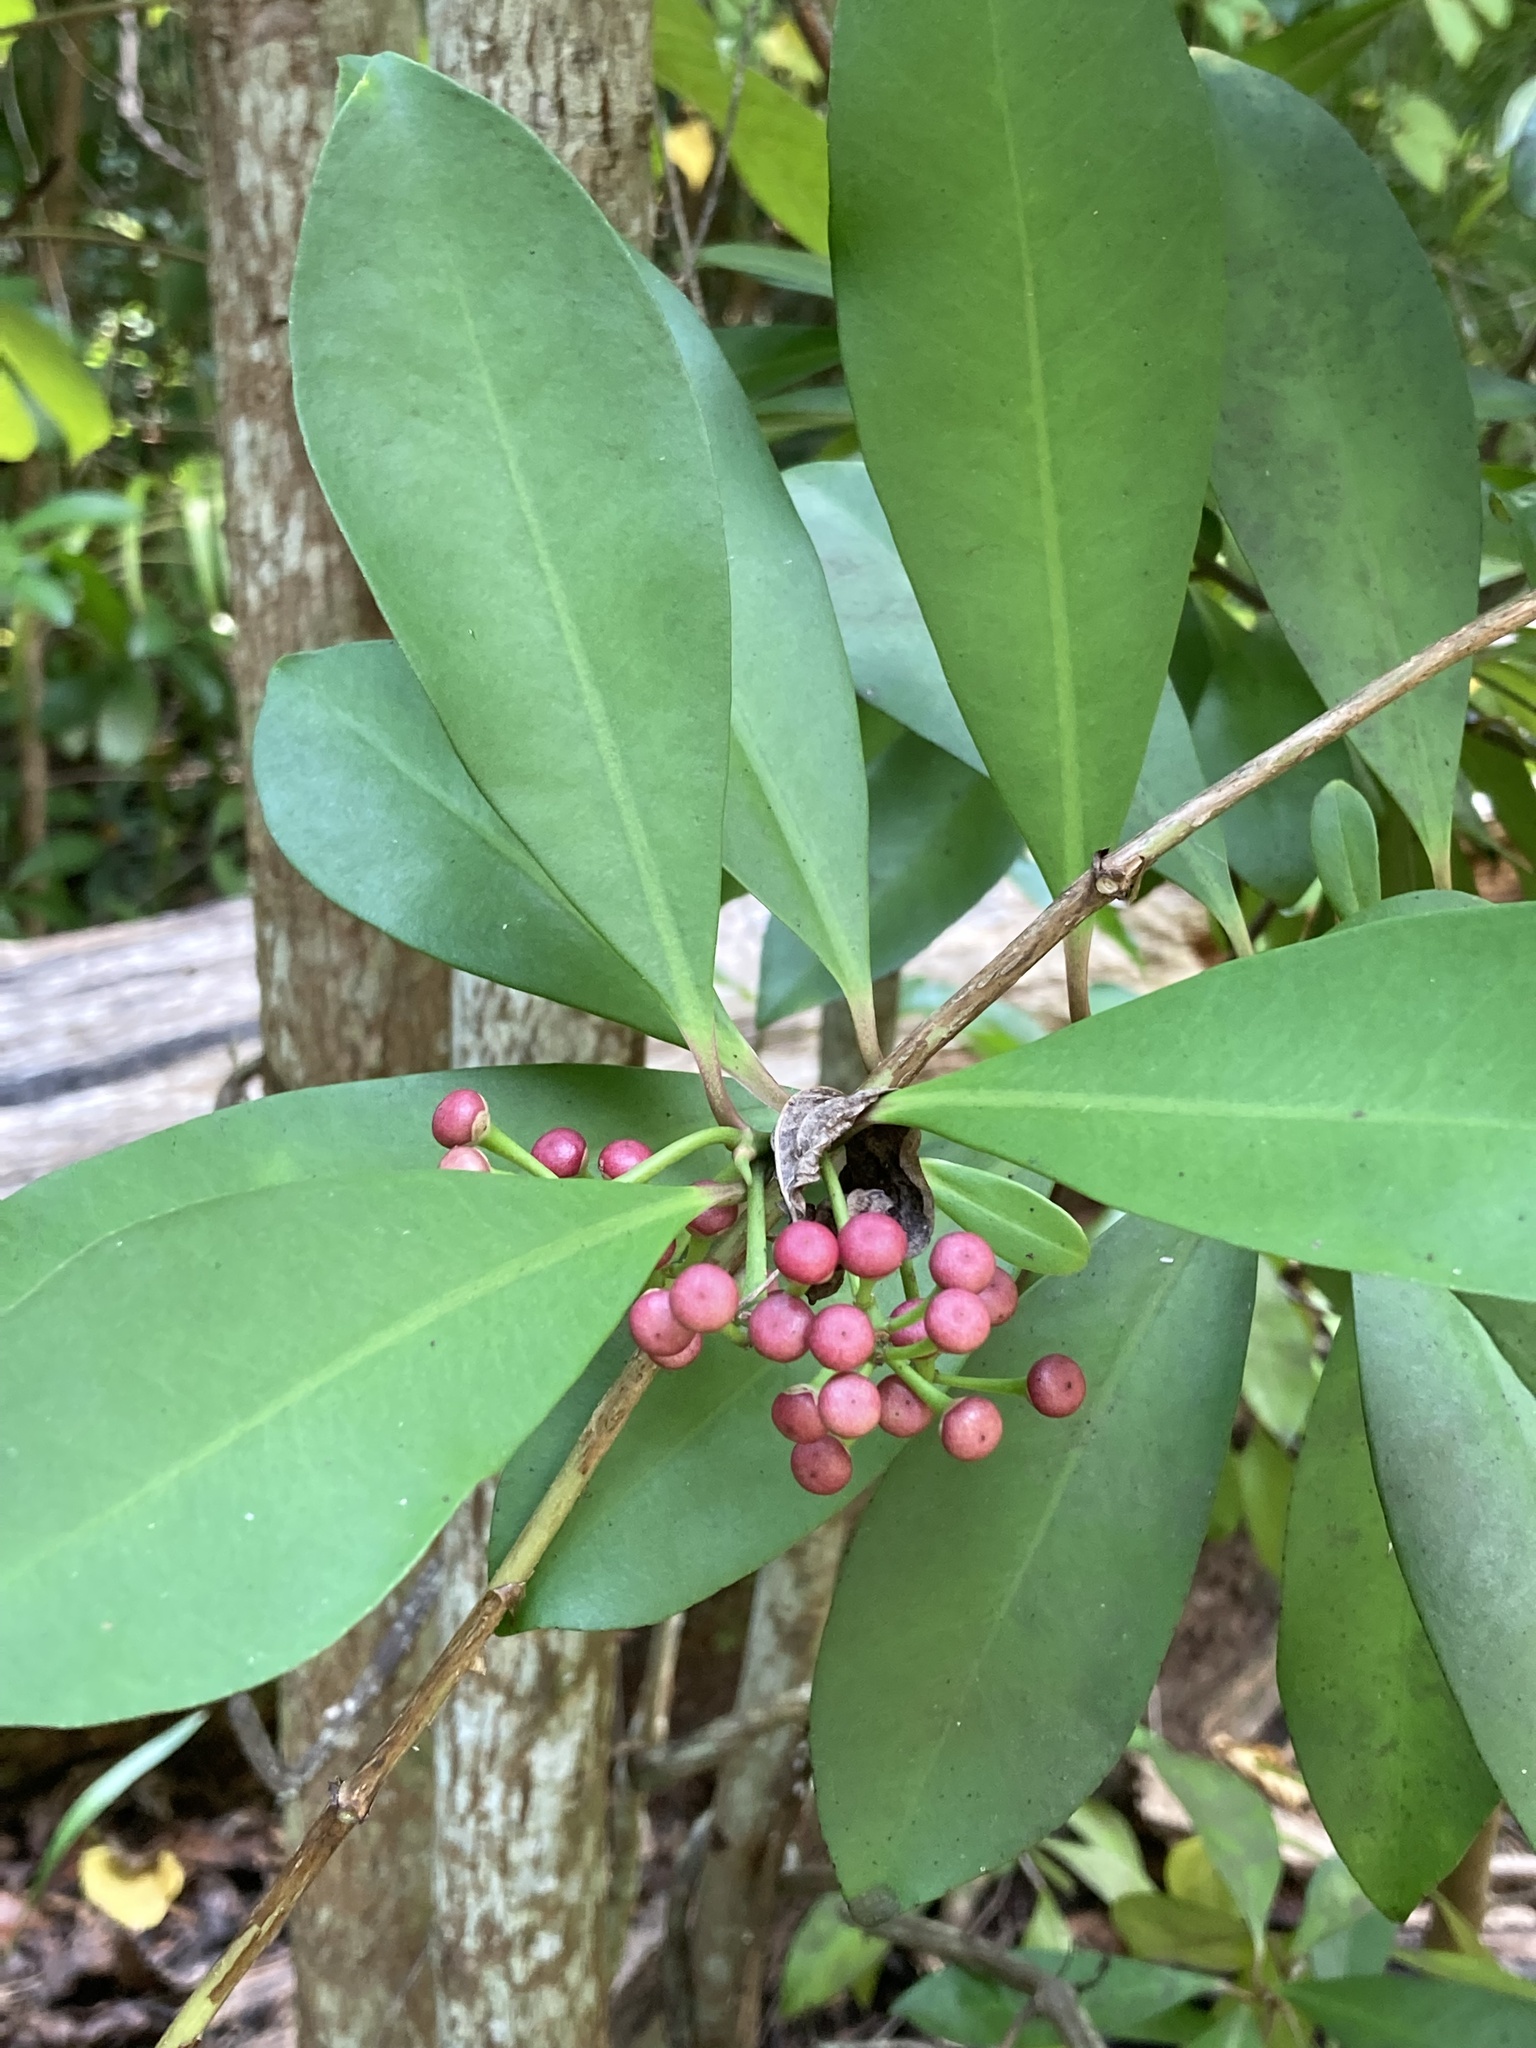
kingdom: Plantae
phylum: Tracheophyta
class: Magnoliopsida
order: Ericales
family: Primulaceae
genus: Ardisia
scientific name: Ardisia elliptica
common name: Shoebutton
